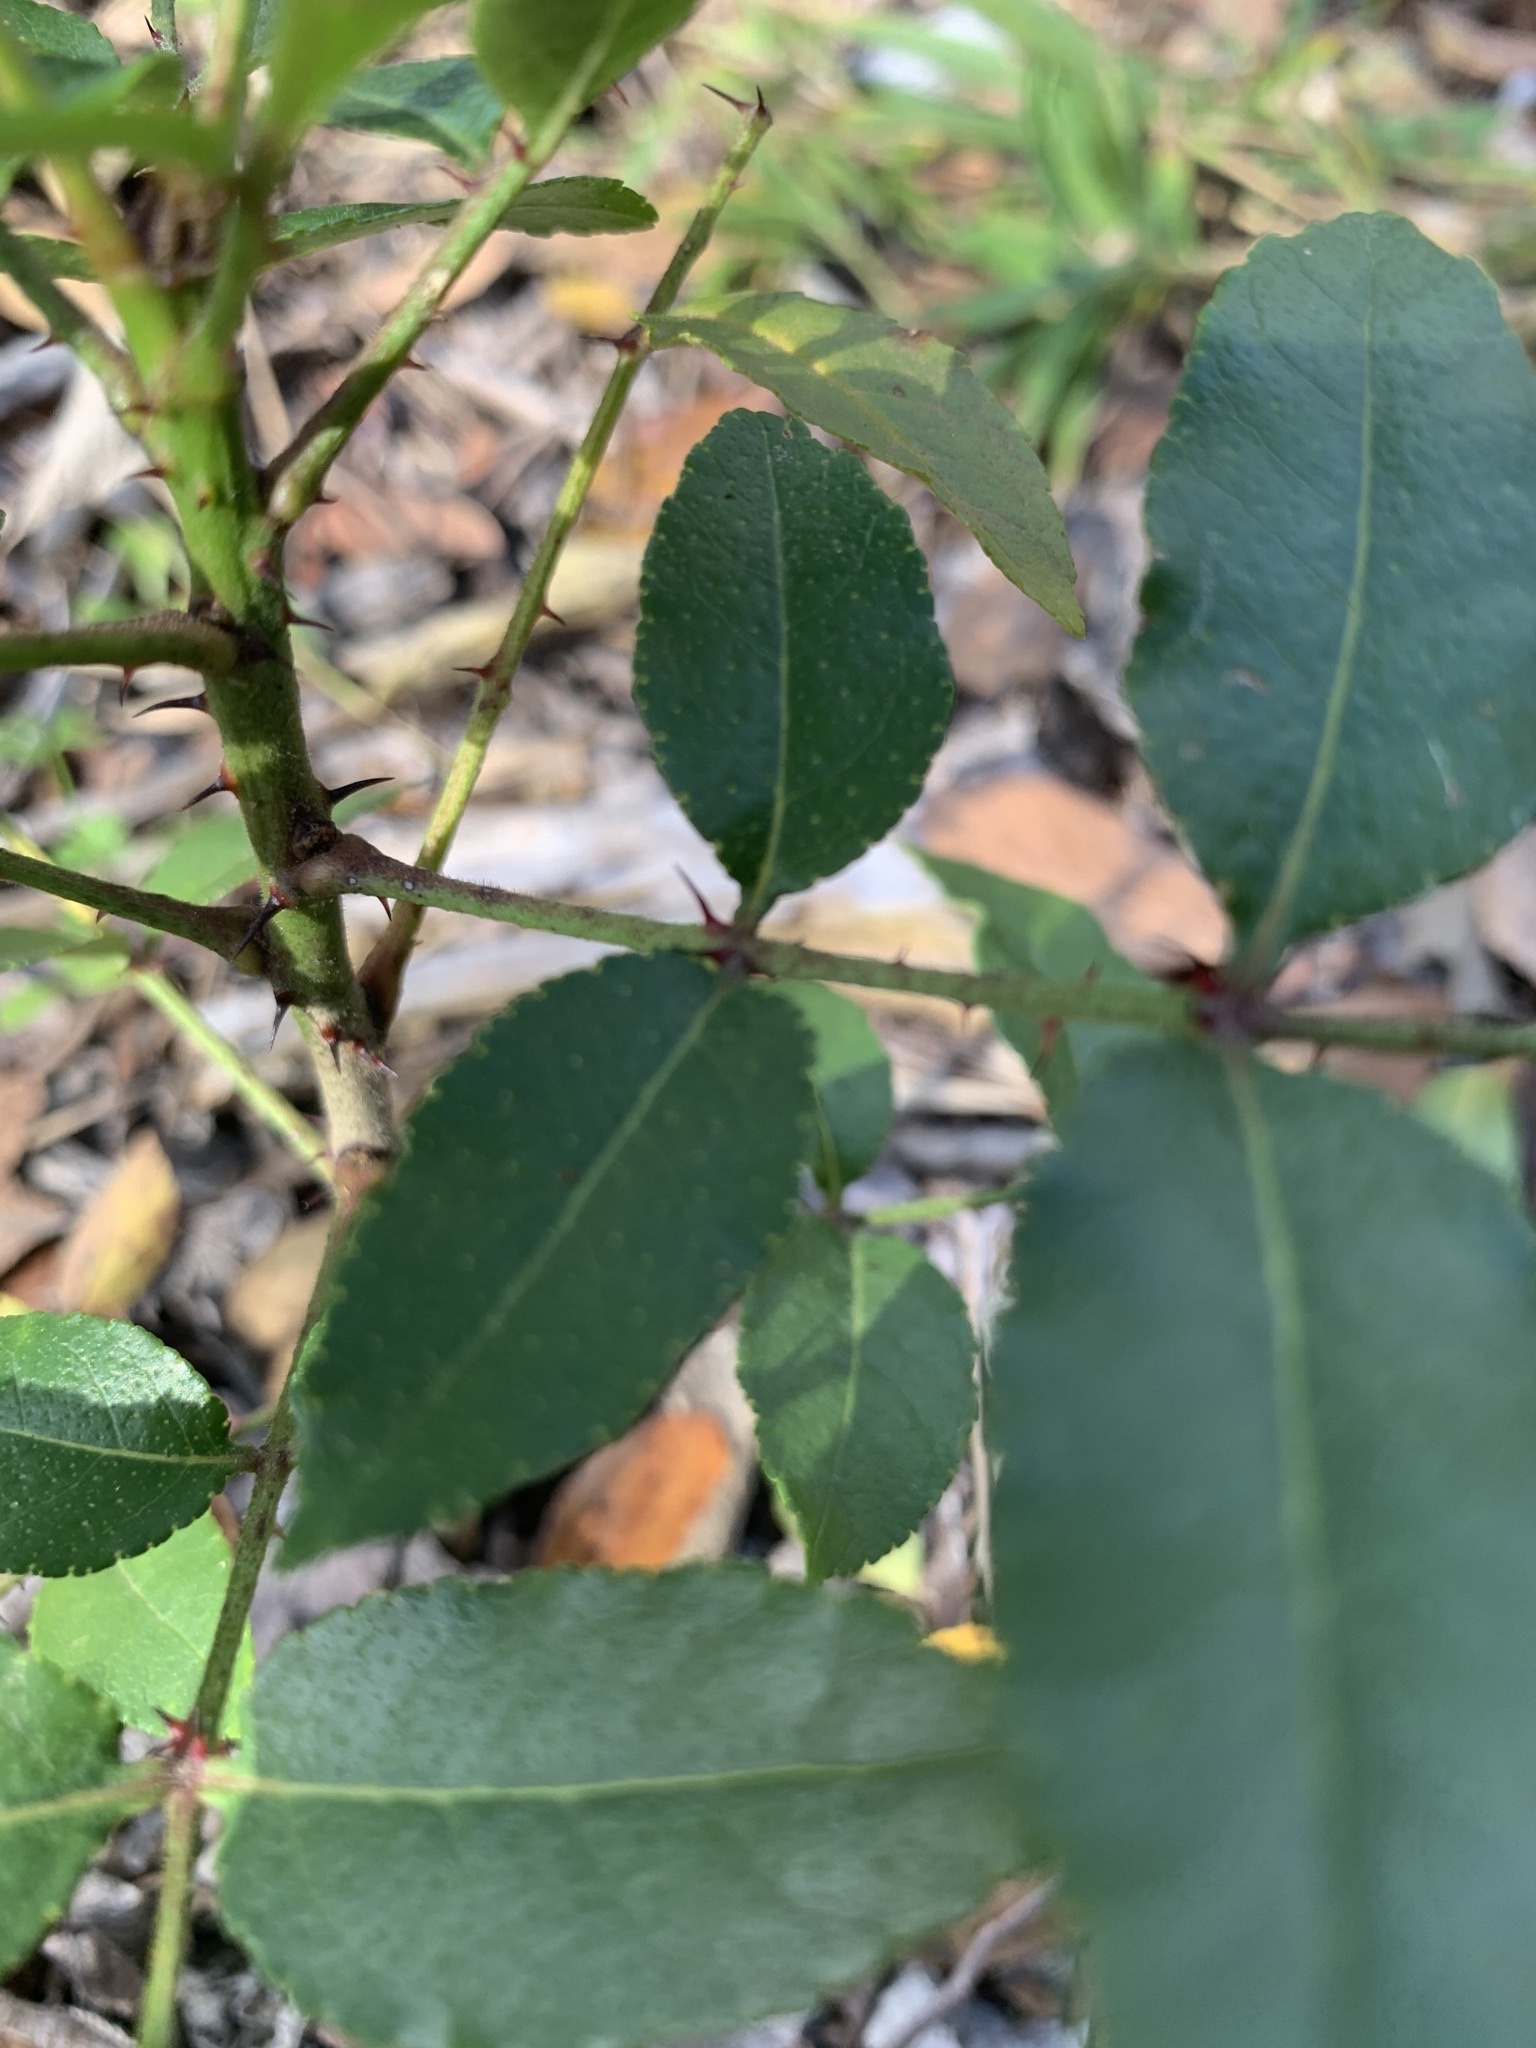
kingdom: Plantae
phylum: Tracheophyta
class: Magnoliopsida
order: Sapindales
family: Rutaceae
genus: Zanthoxylum
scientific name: Zanthoxylum clava-herculis
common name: Hercules'-club
